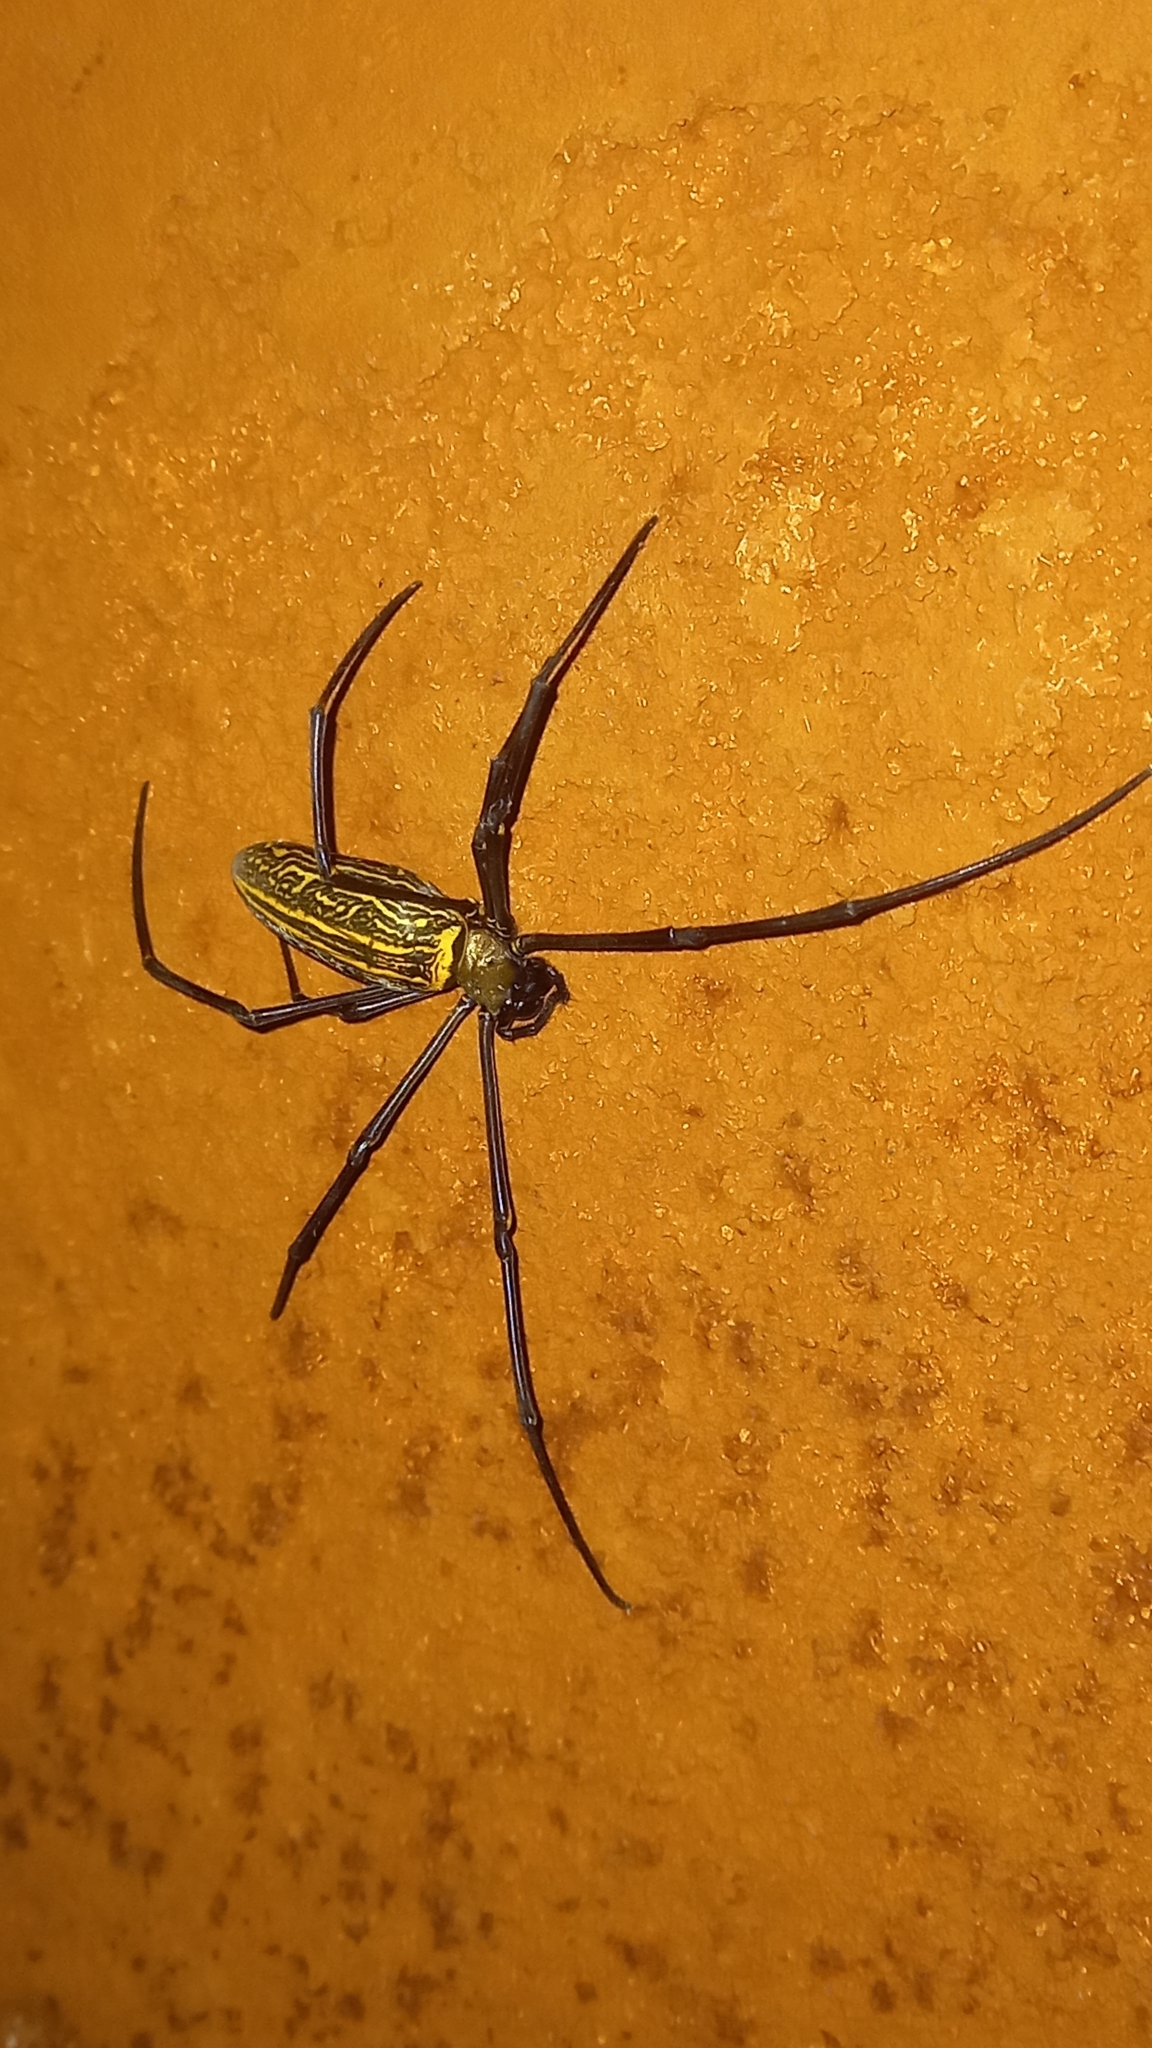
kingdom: Animalia
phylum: Arthropoda
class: Arachnida
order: Araneae
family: Araneidae
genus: Nephila
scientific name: Nephila pilipes
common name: Giant golden orb weaver
